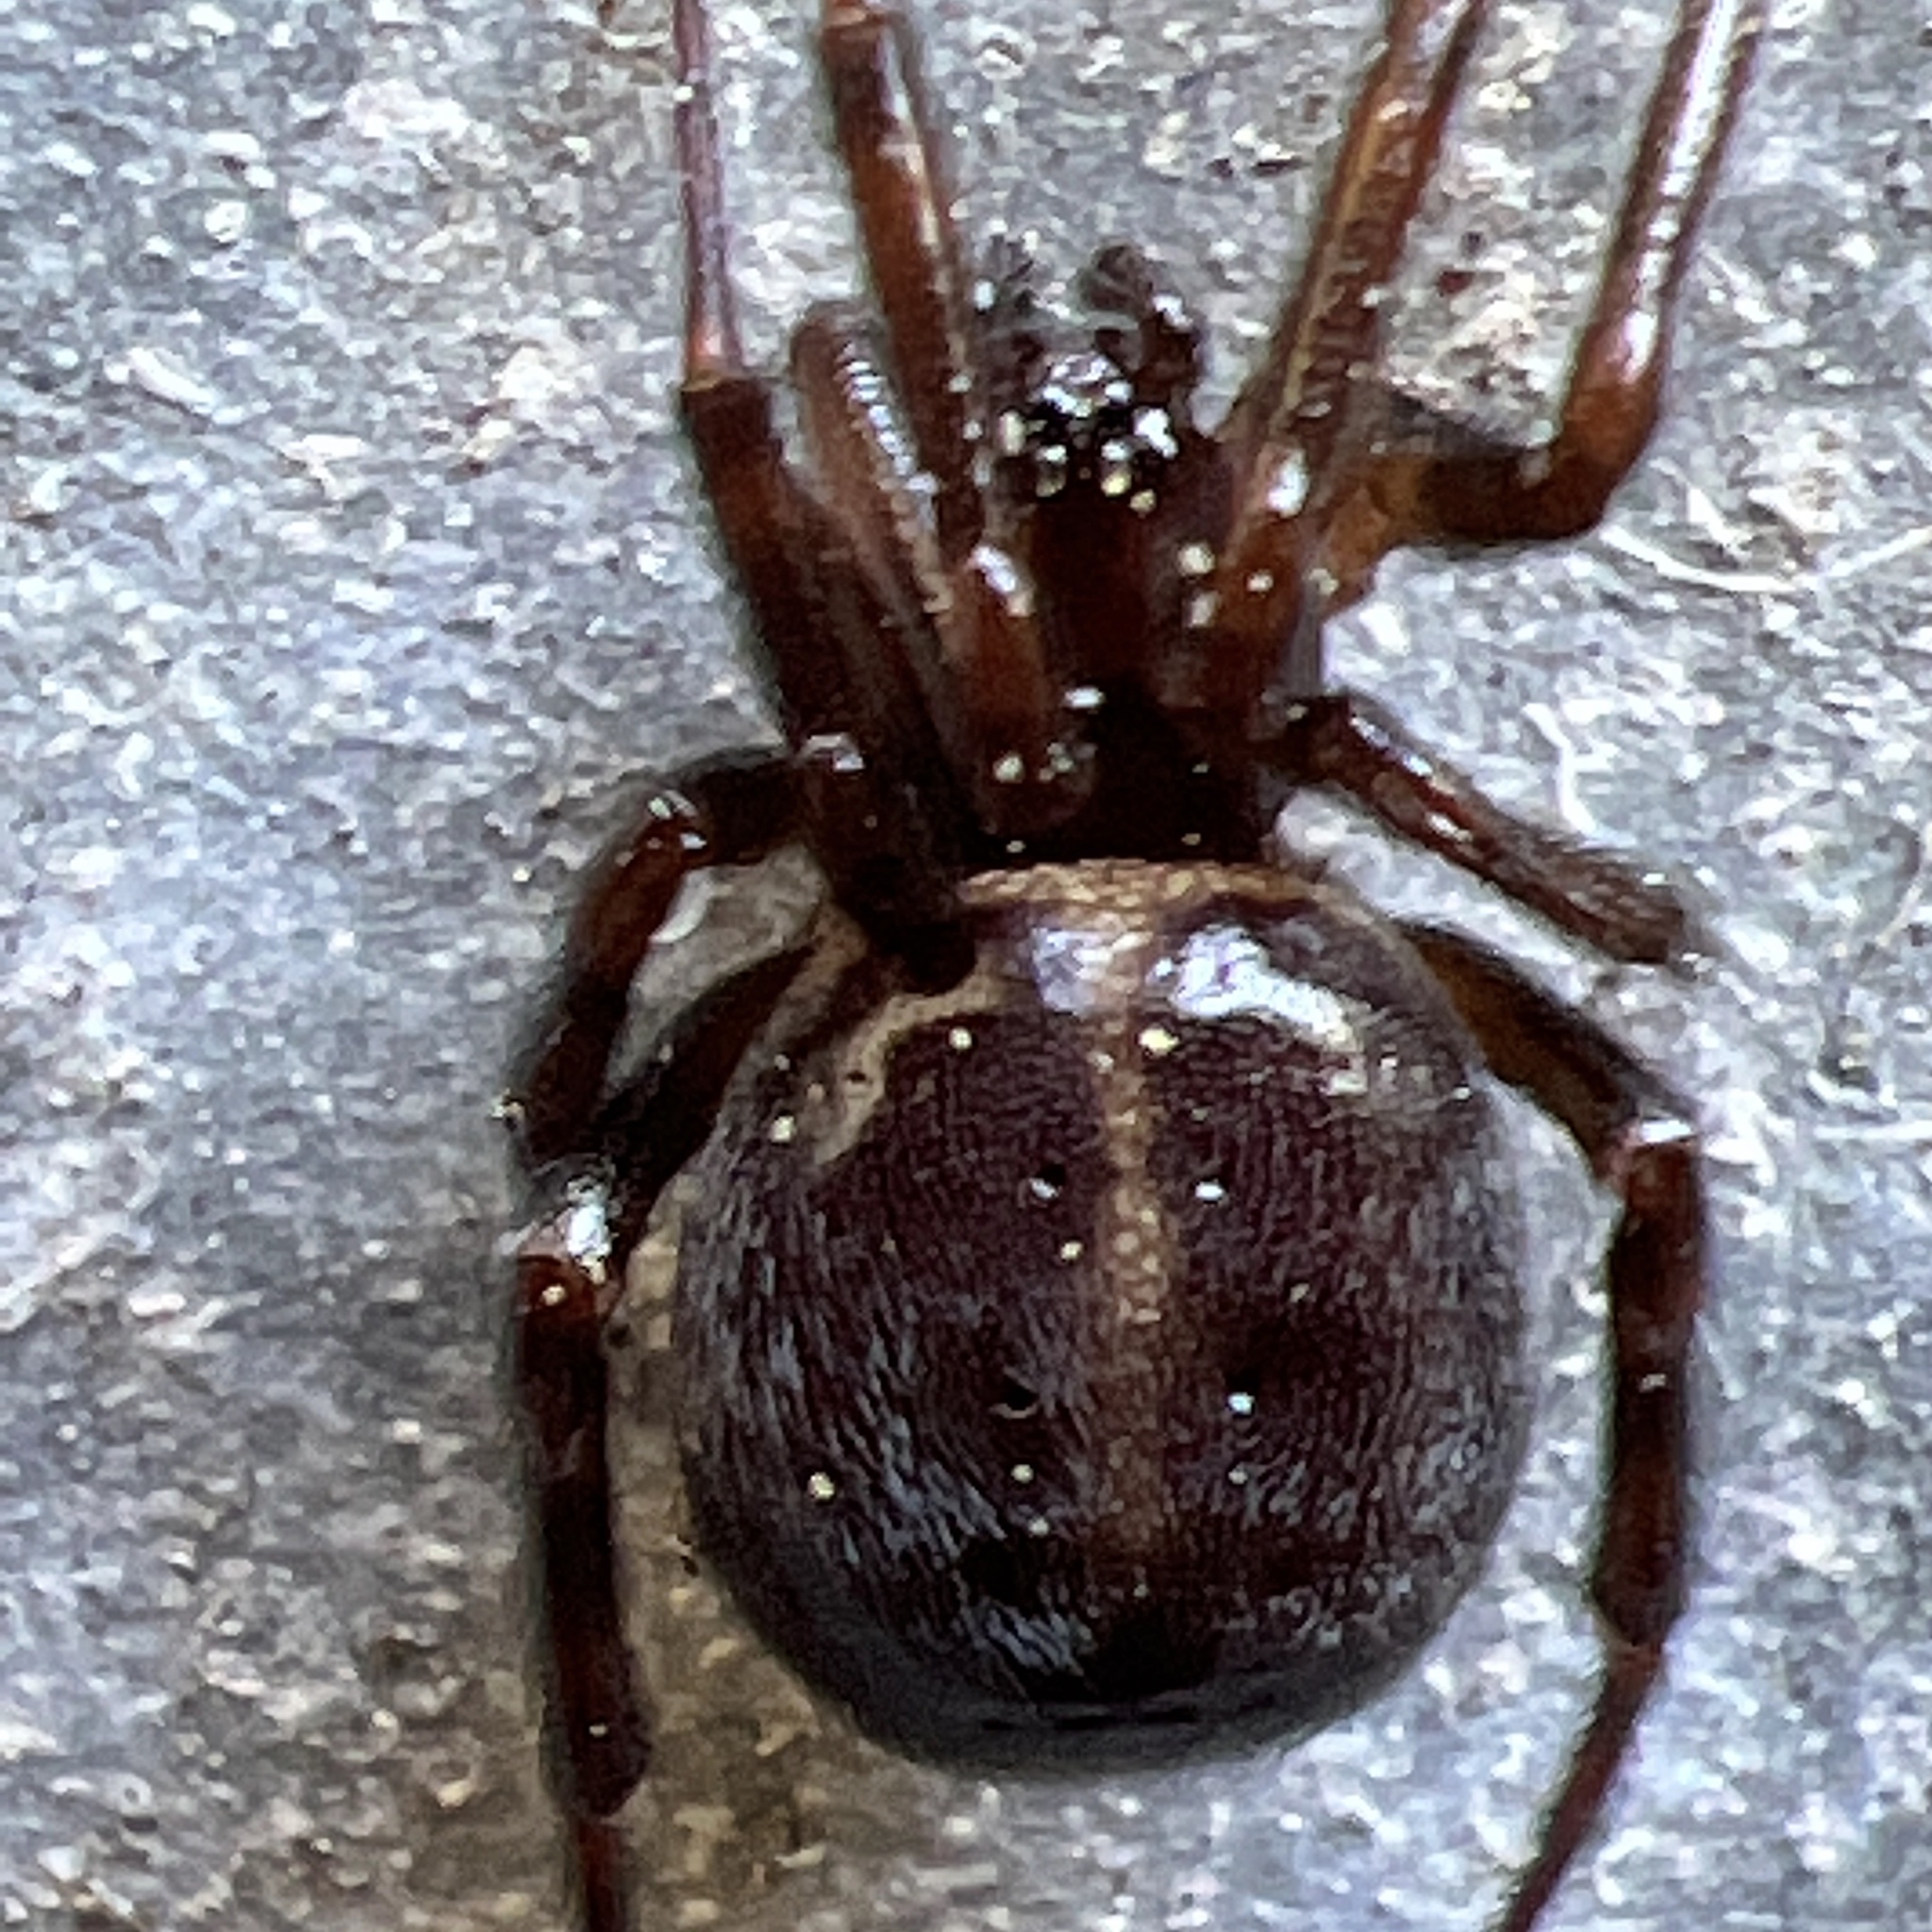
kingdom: Animalia
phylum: Arthropoda
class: Arachnida
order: Araneae
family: Theridiidae
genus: Steatoda
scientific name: Steatoda borealis
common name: Boreal combfoot
